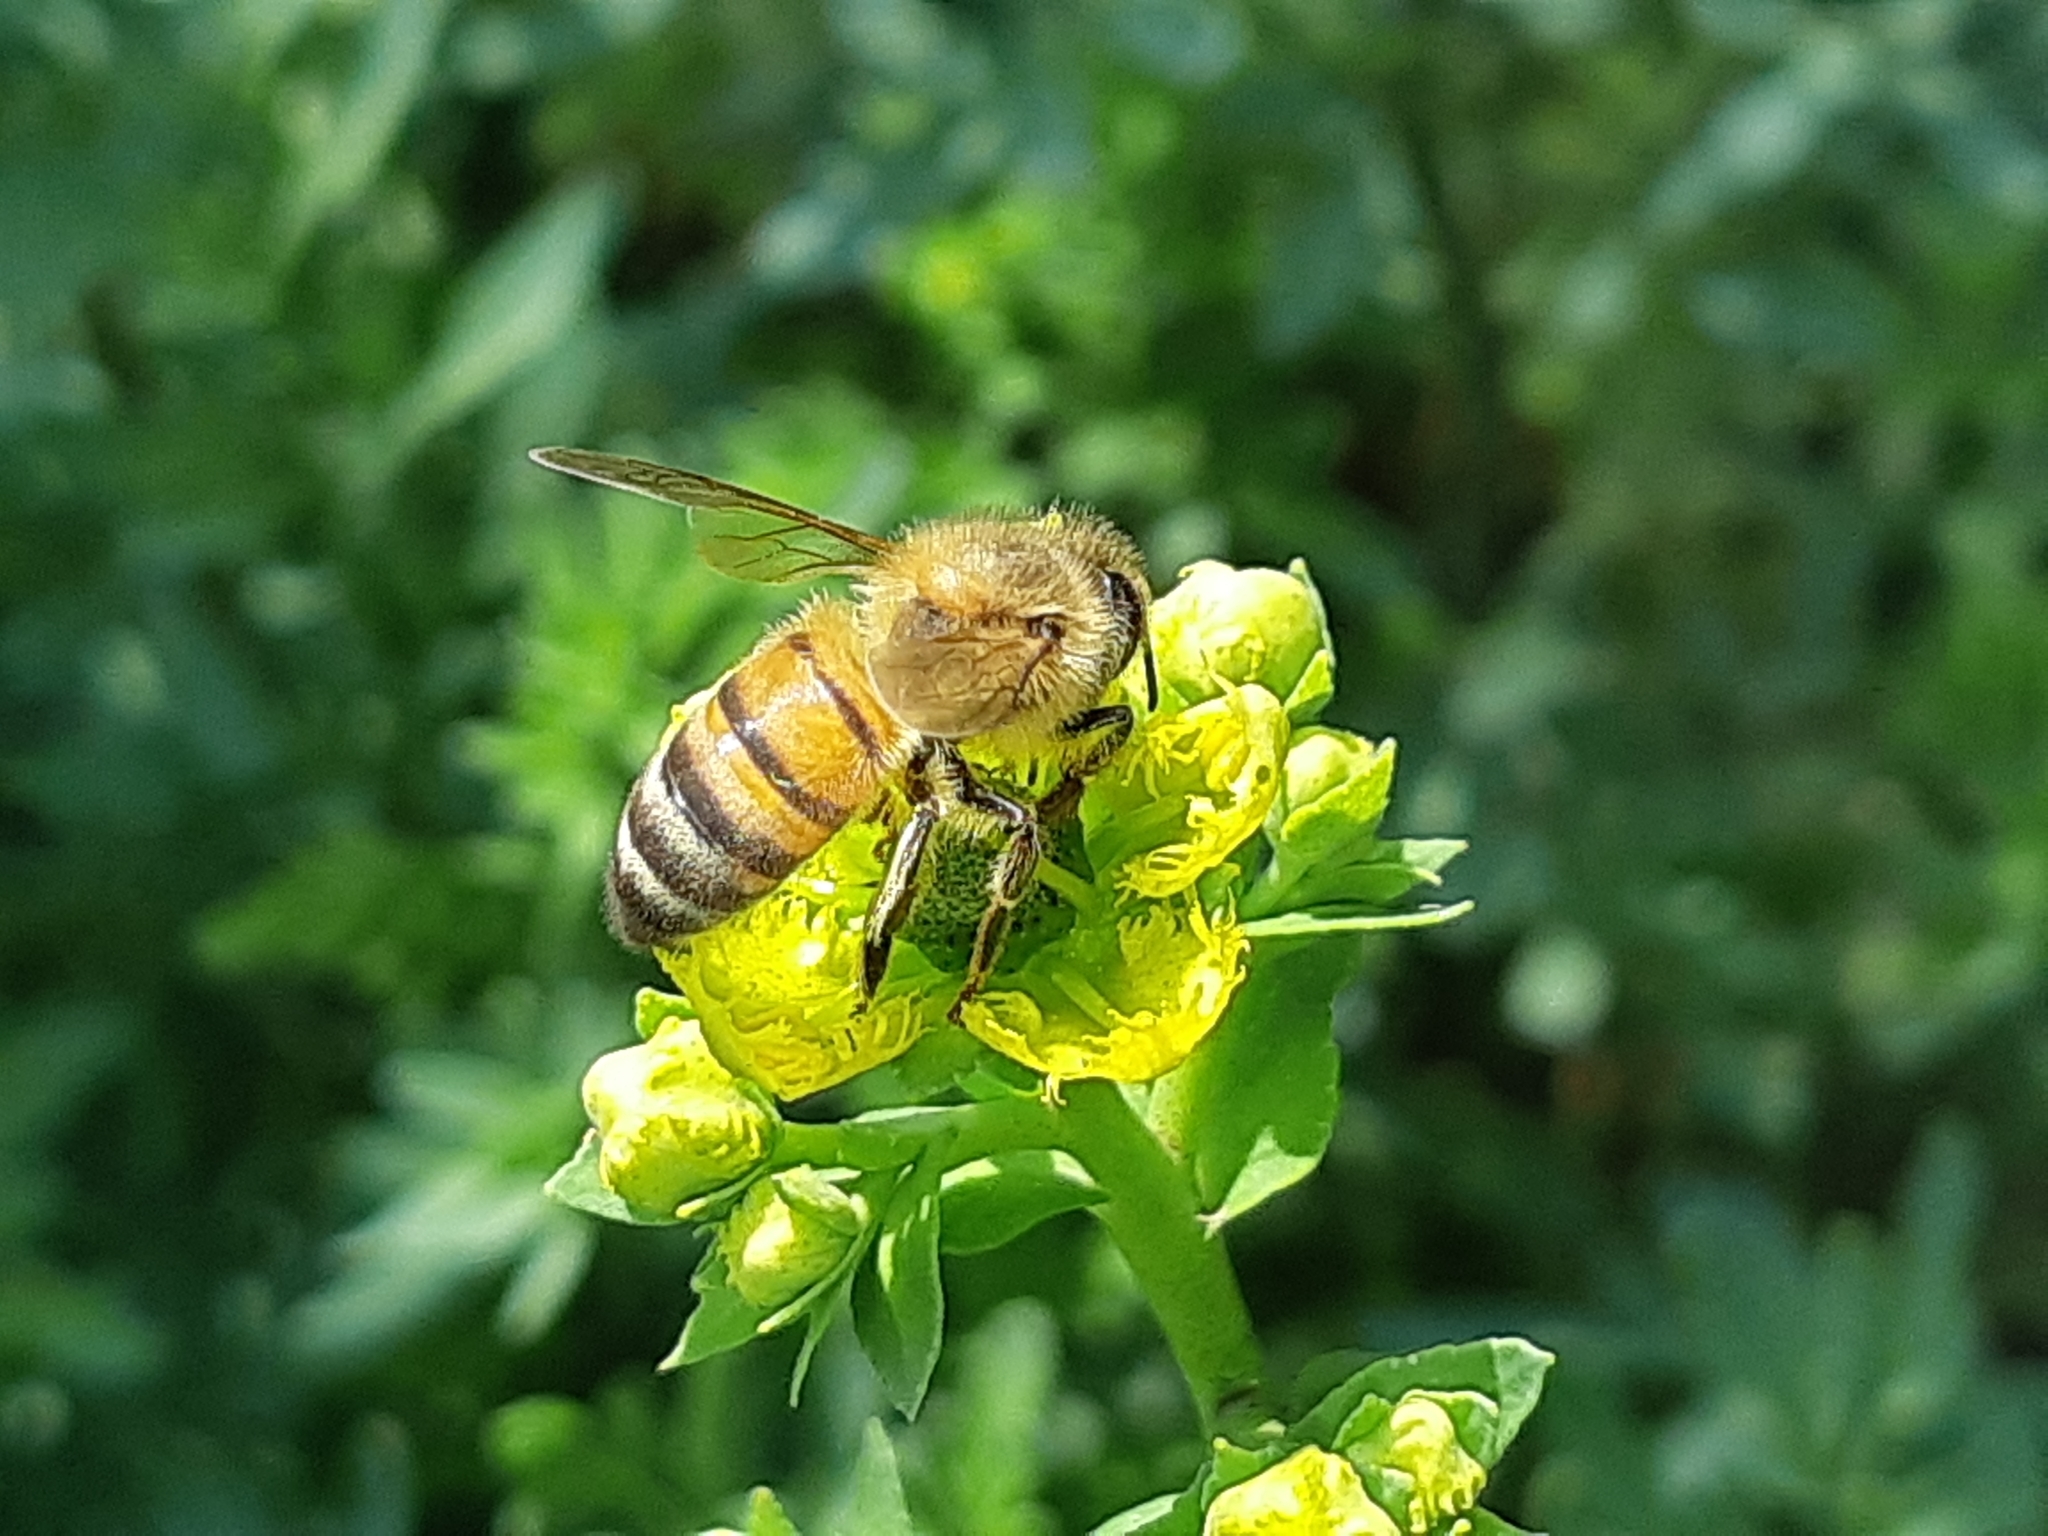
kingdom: Animalia
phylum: Arthropoda
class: Insecta
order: Hymenoptera
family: Apidae
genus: Apis
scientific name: Apis mellifera
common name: Honey bee
